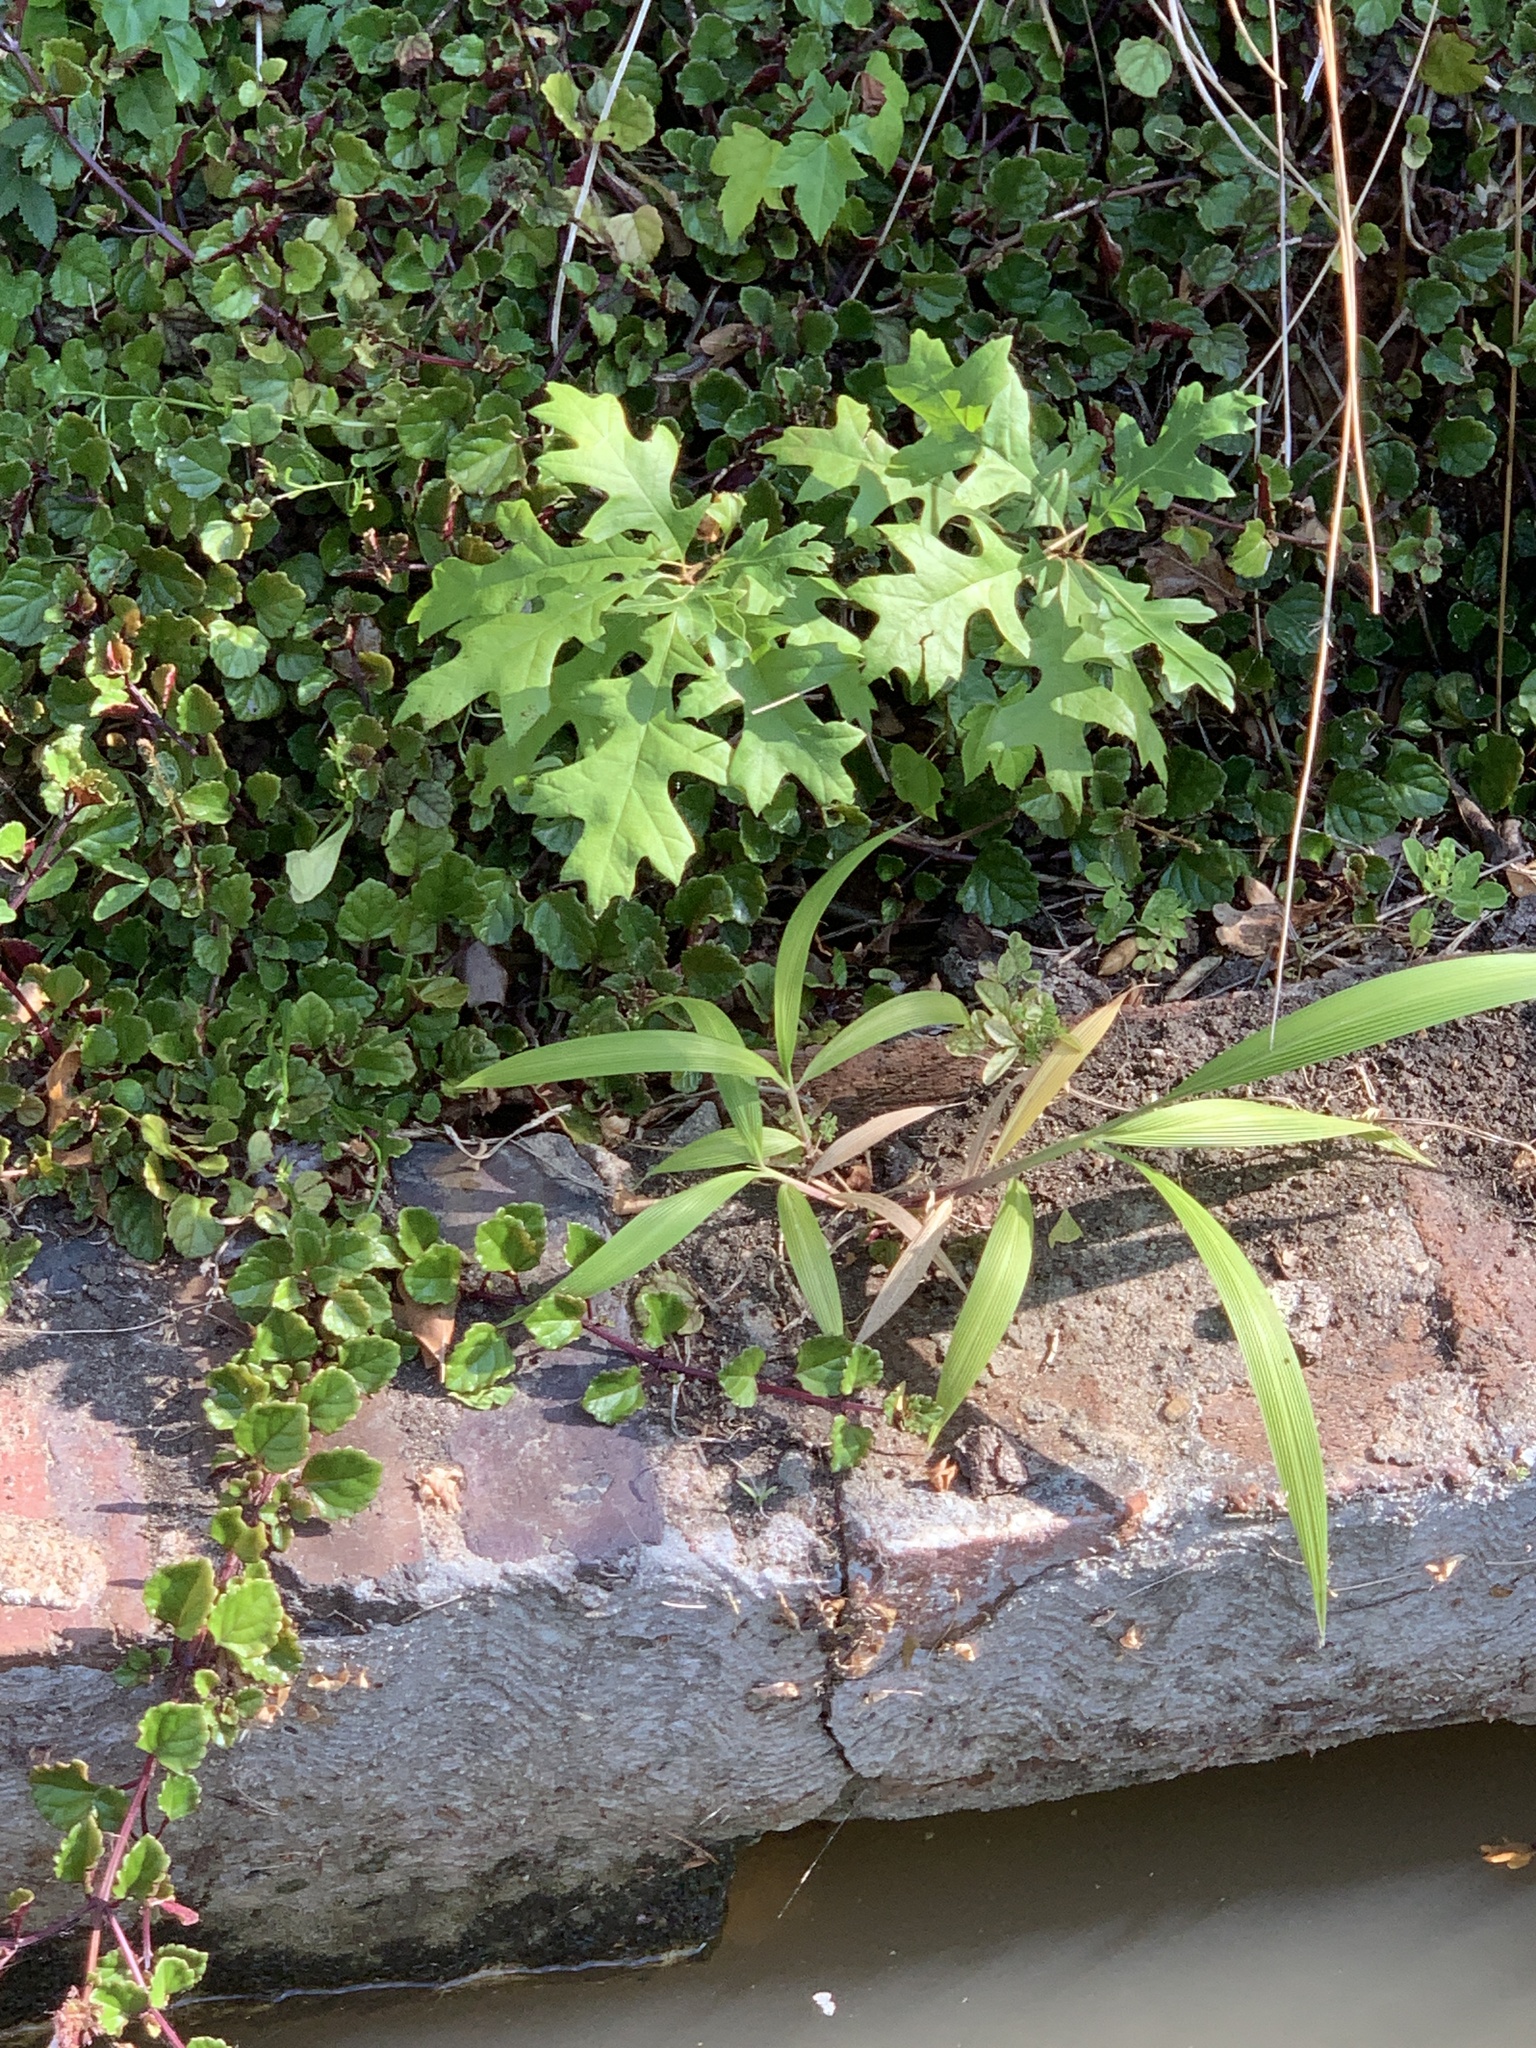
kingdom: Plantae
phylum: Tracheophyta
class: Magnoliopsida
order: Fagales
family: Fagaceae
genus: Quercus
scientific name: Quercus palustris
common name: Pin oak
